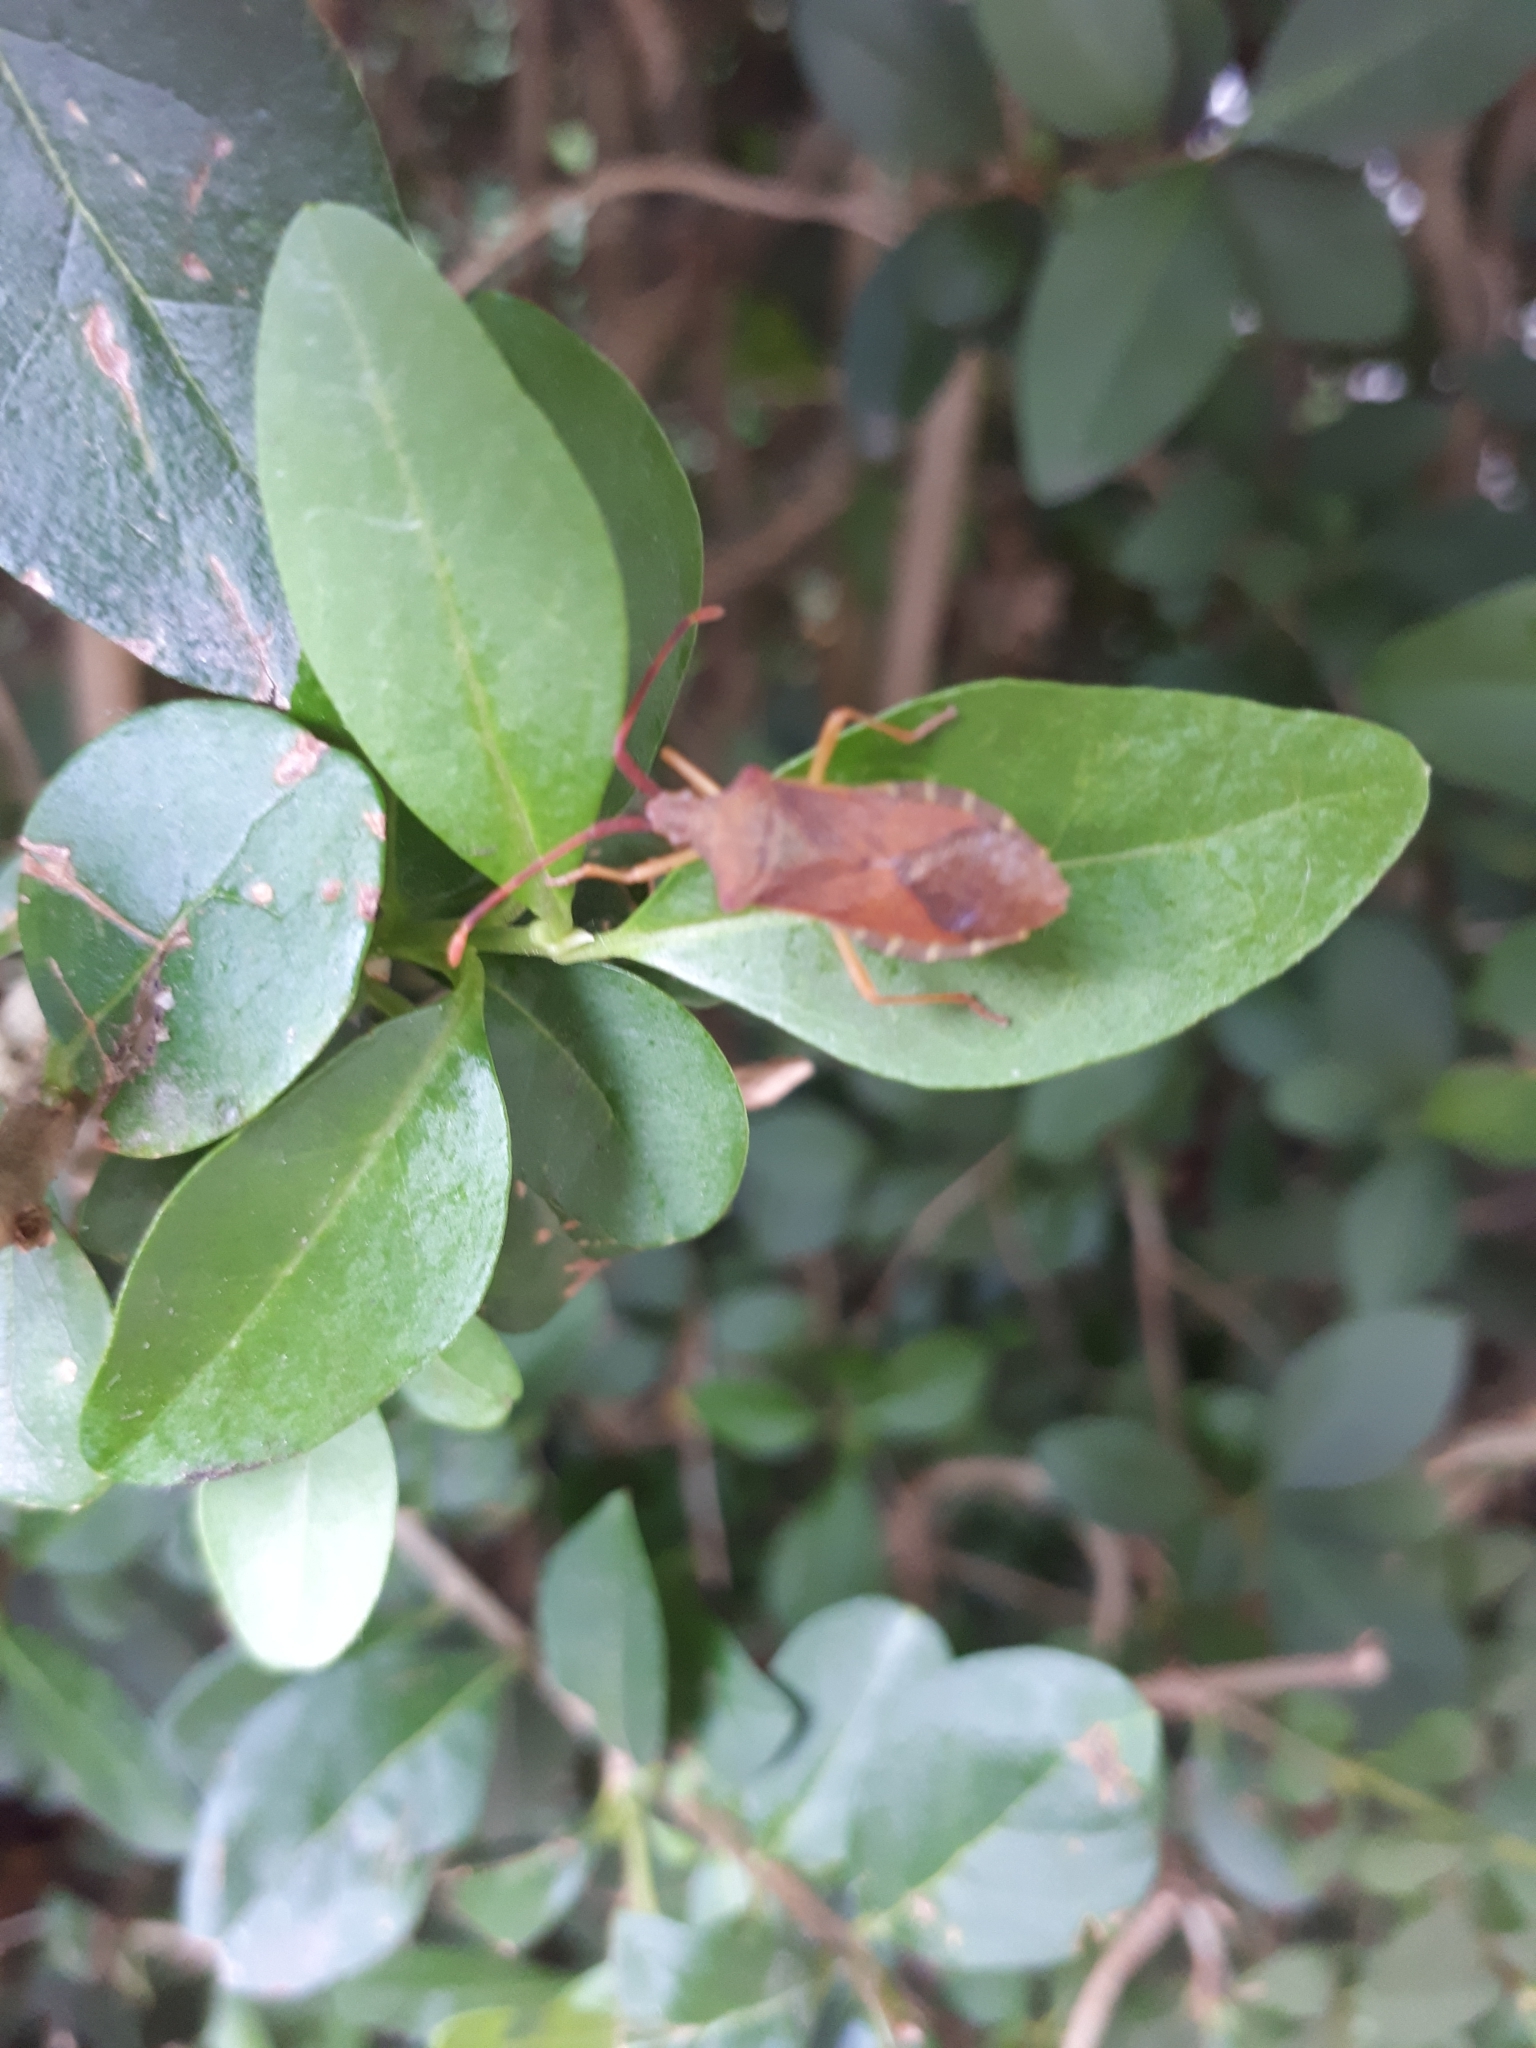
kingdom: Animalia
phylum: Arthropoda
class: Insecta
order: Hemiptera
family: Coreidae
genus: Gonocerus
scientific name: Gonocerus acuteangulatus
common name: Box bug
